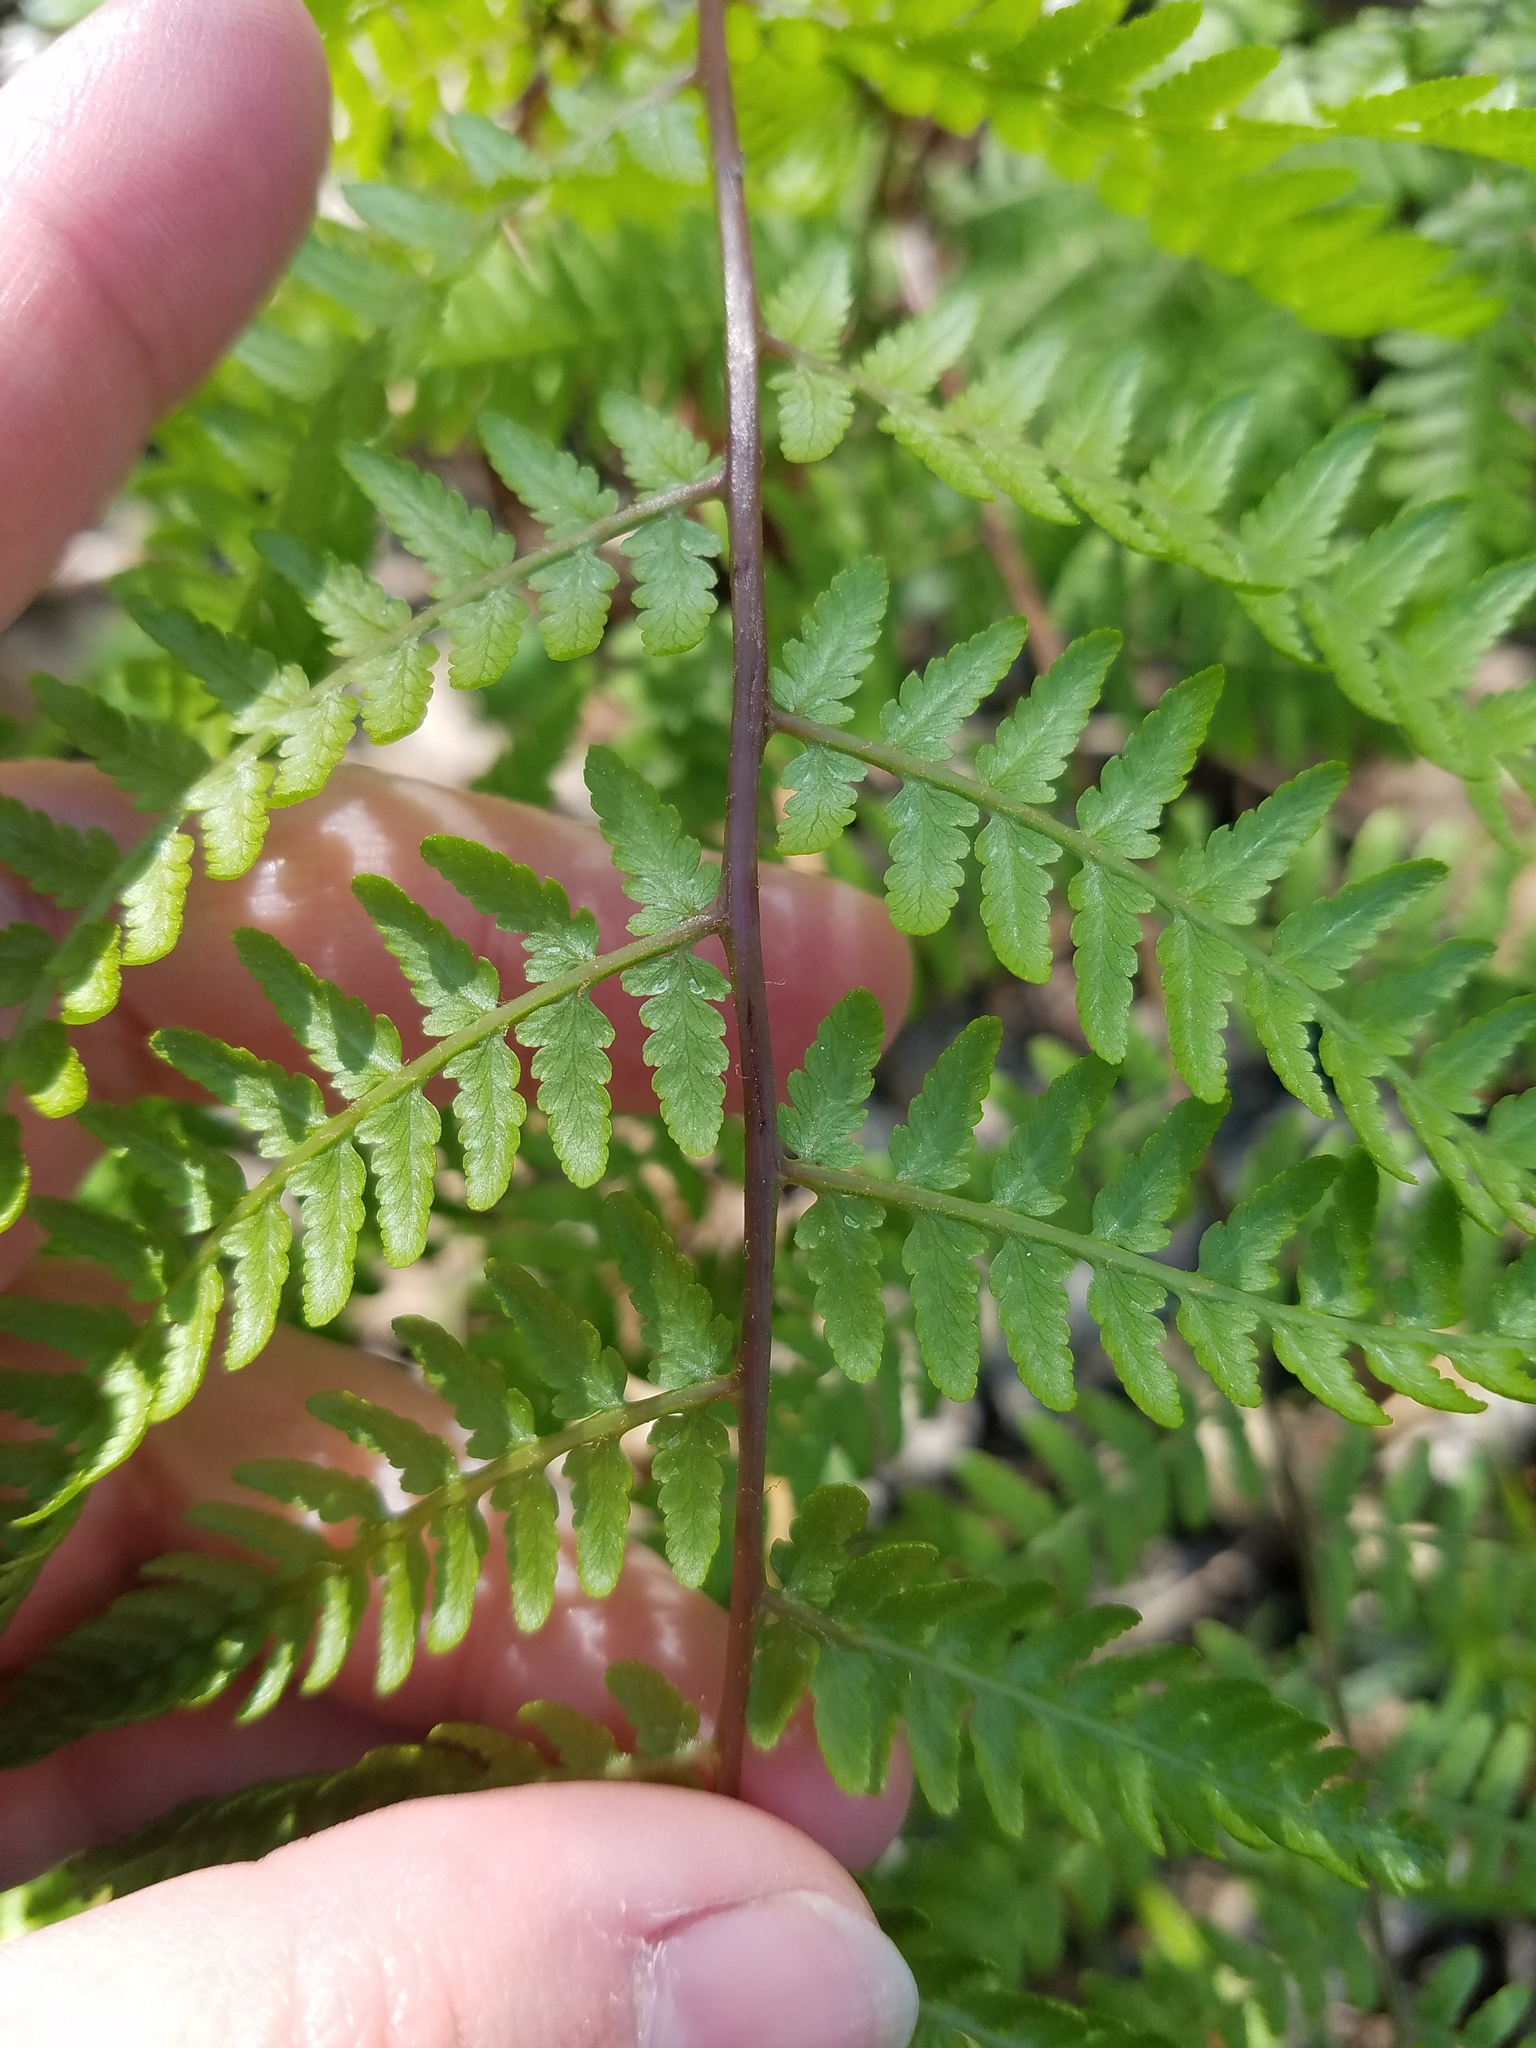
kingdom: Plantae
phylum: Tracheophyta
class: Polypodiopsida
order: Polypodiales
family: Athyriaceae
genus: Athyrium
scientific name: Athyrium asplenioides
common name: Southern lady fern
